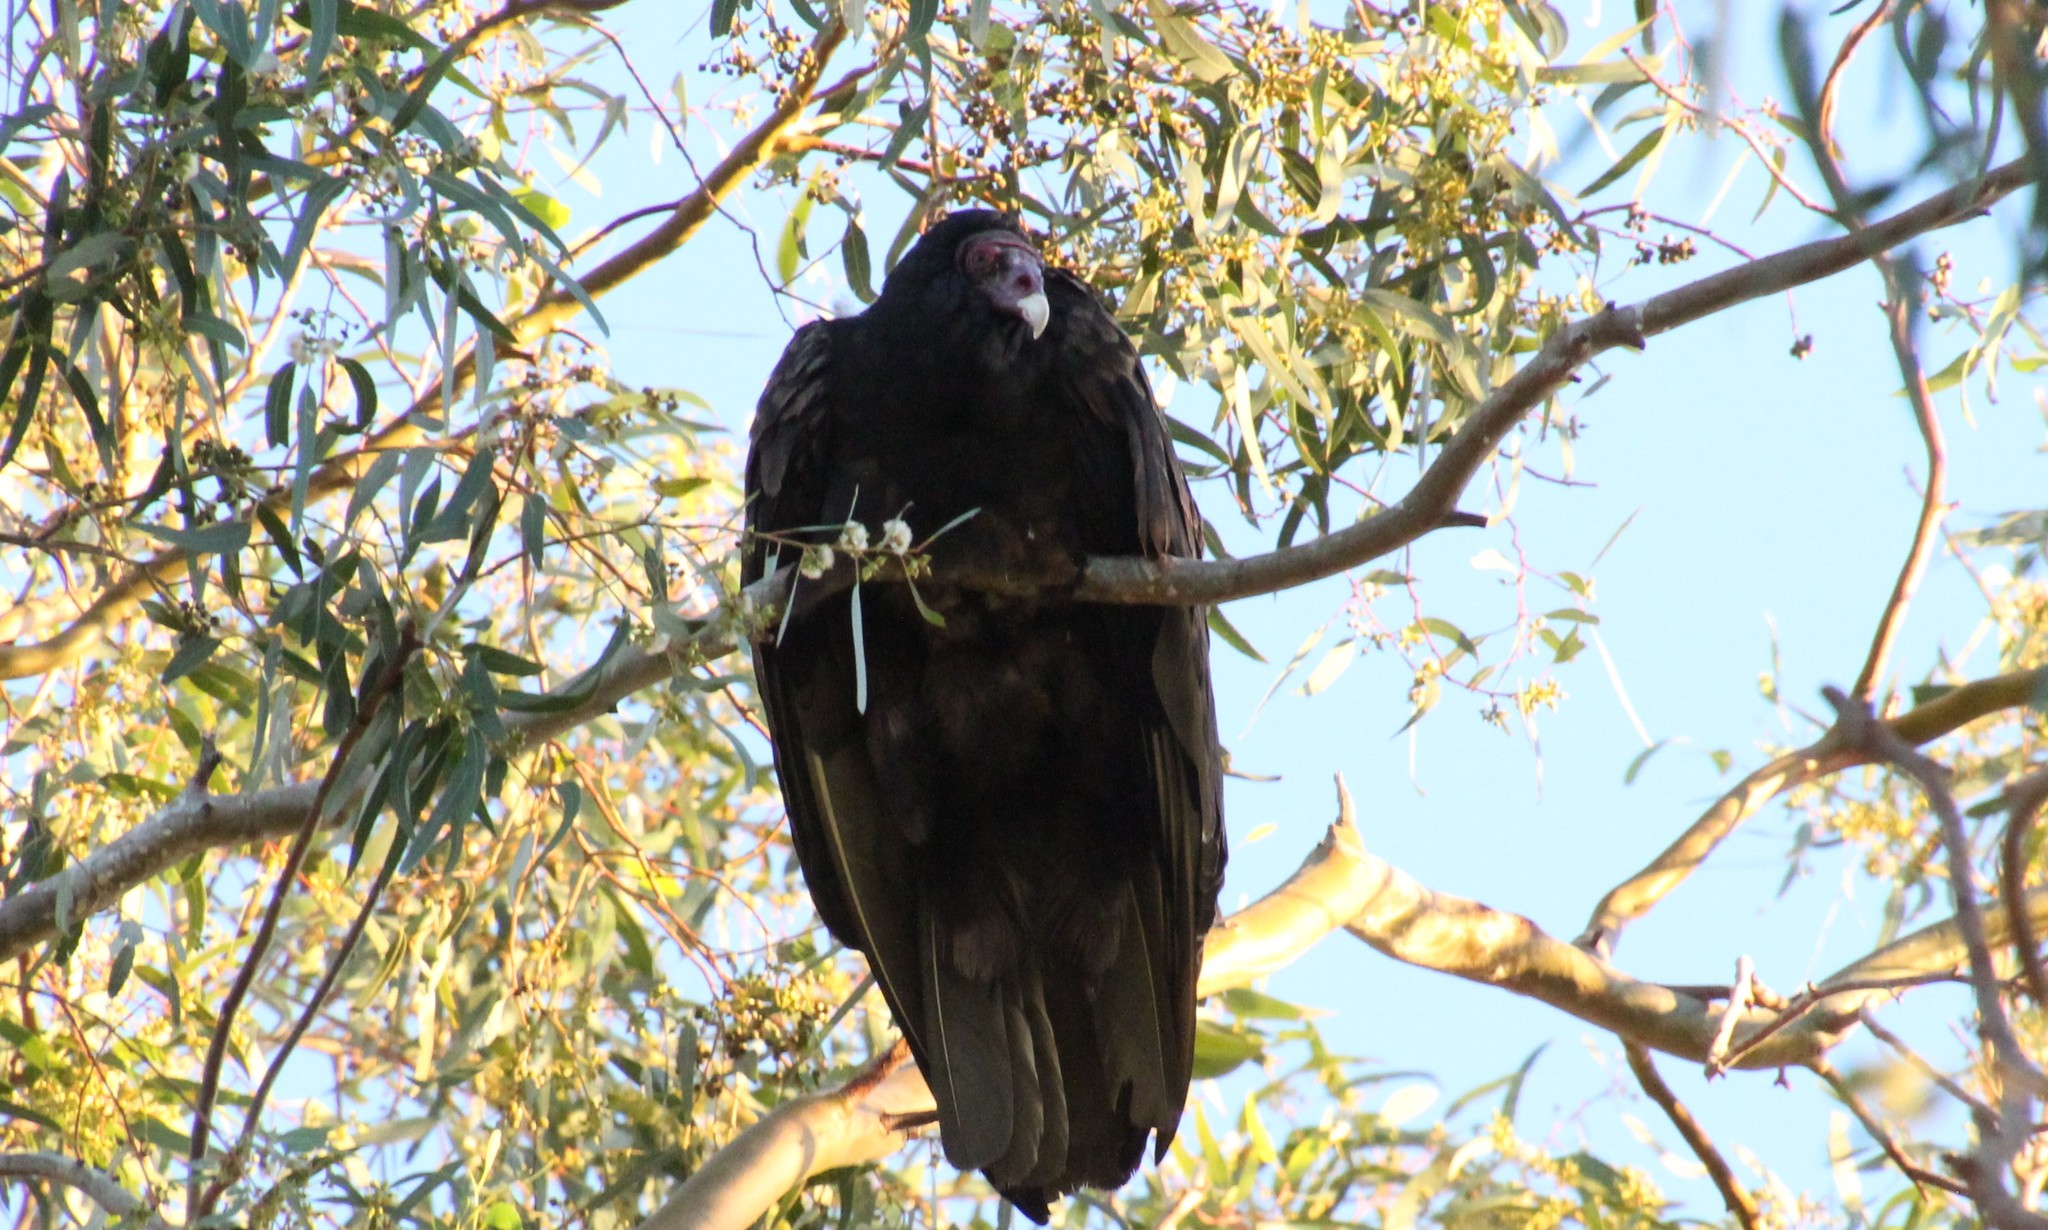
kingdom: Animalia
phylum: Chordata
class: Aves
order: Accipitriformes
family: Cathartidae
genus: Cathartes
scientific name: Cathartes aura
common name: Turkey vulture
